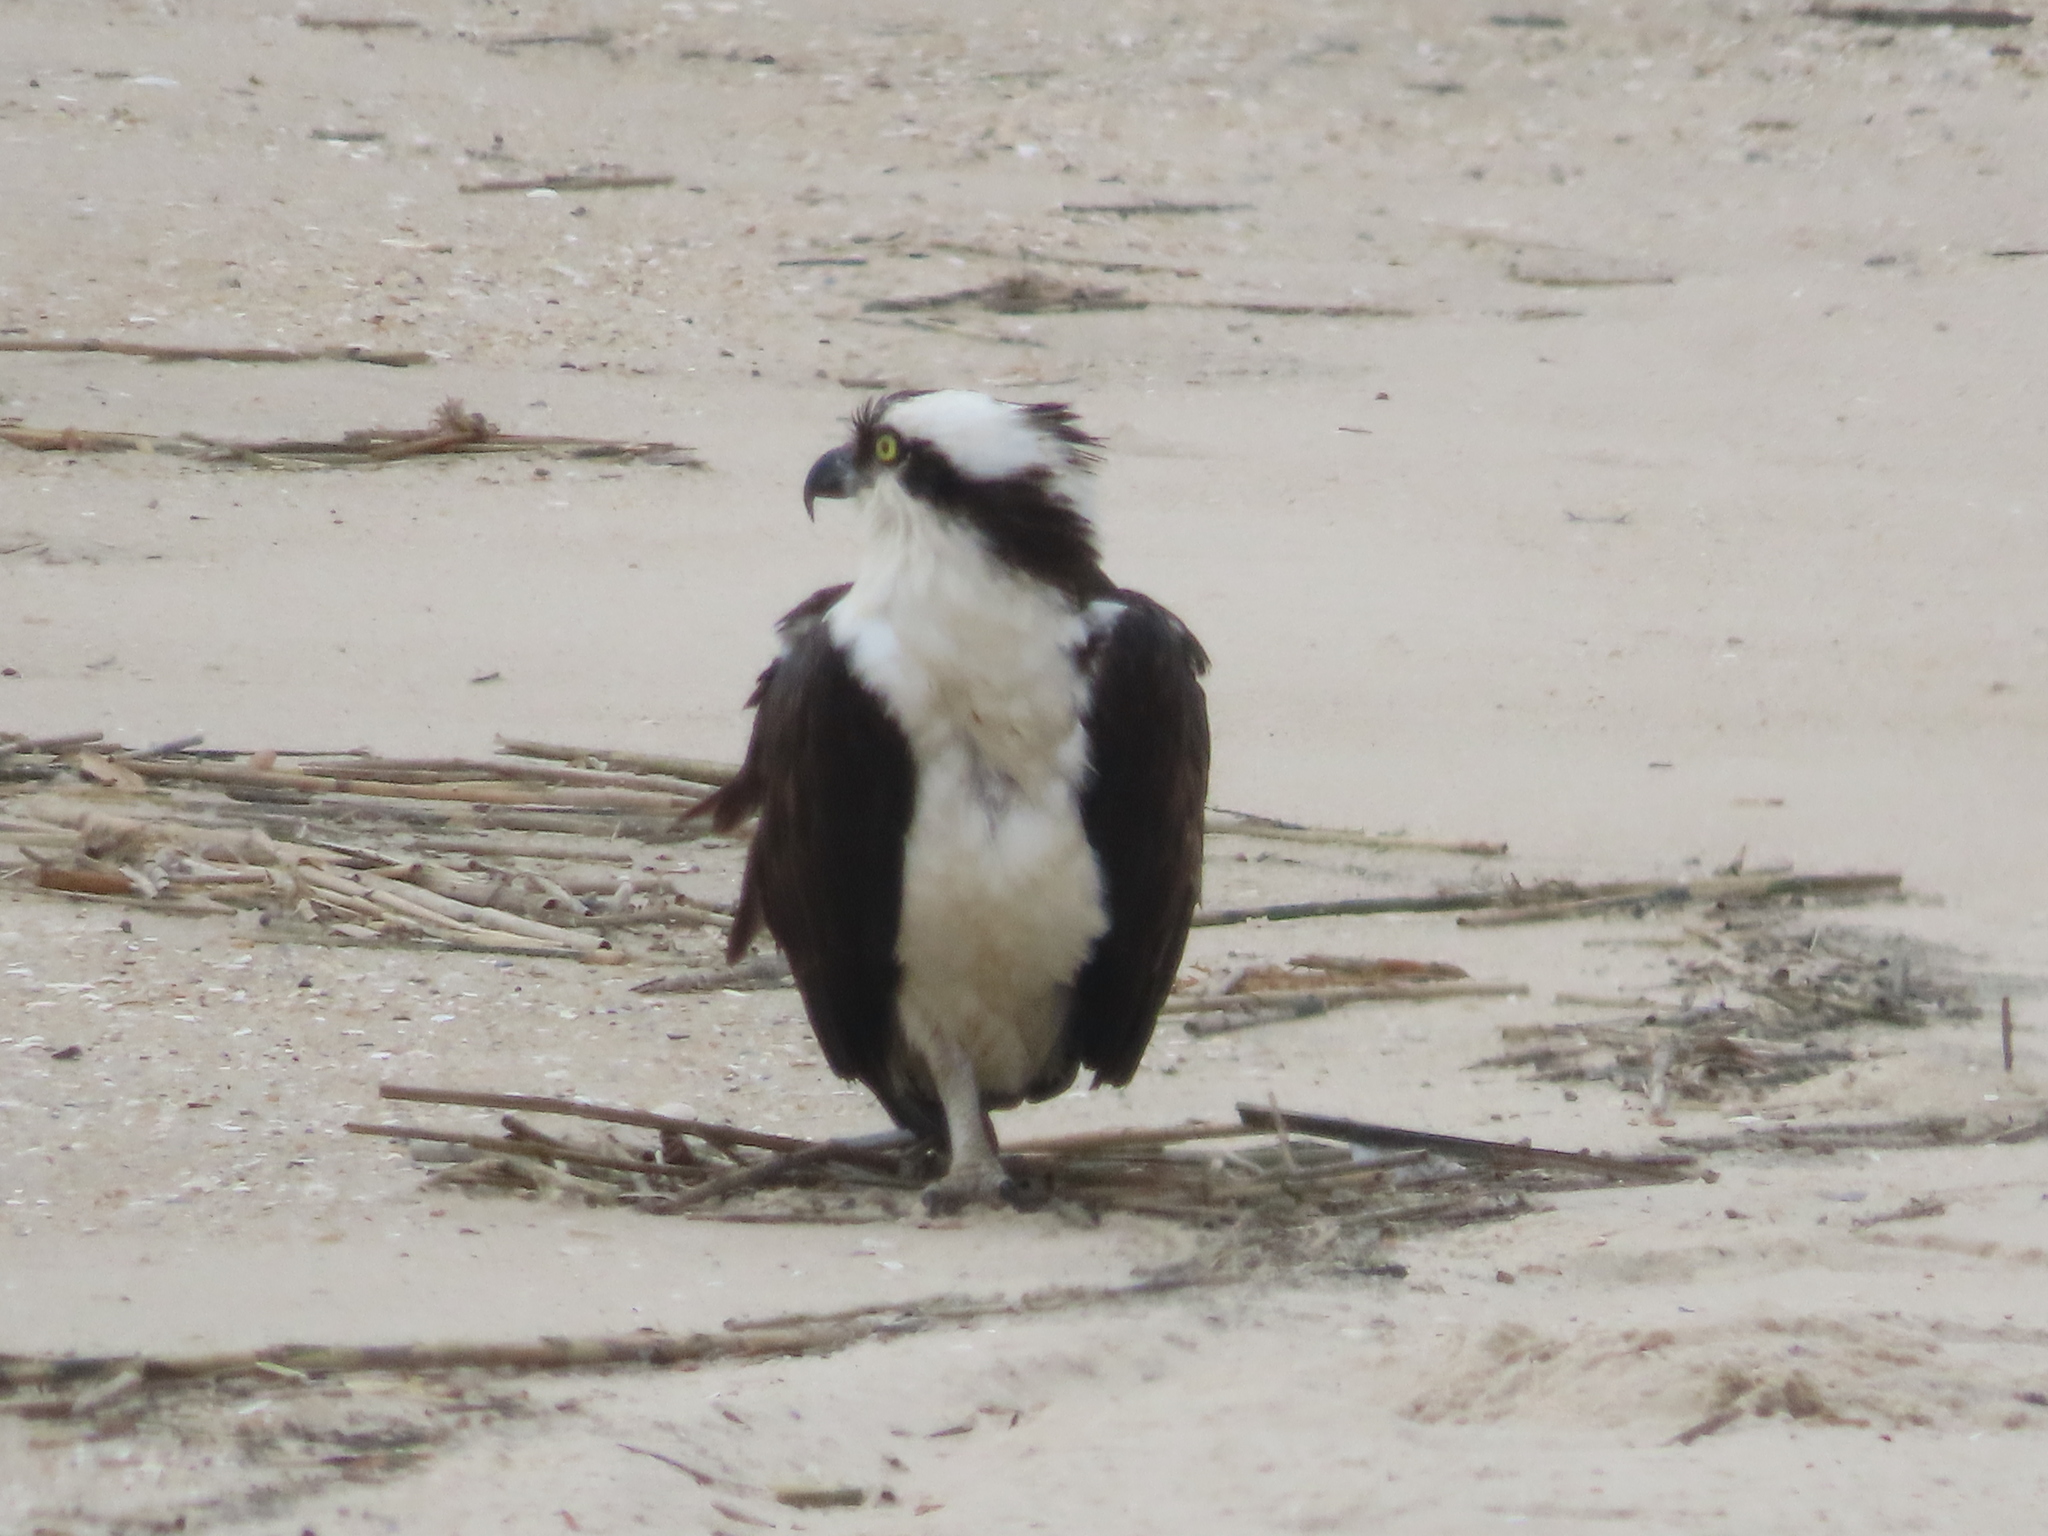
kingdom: Animalia
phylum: Chordata
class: Aves
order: Accipitriformes
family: Pandionidae
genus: Pandion
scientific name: Pandion haliaetus
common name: Osprey
